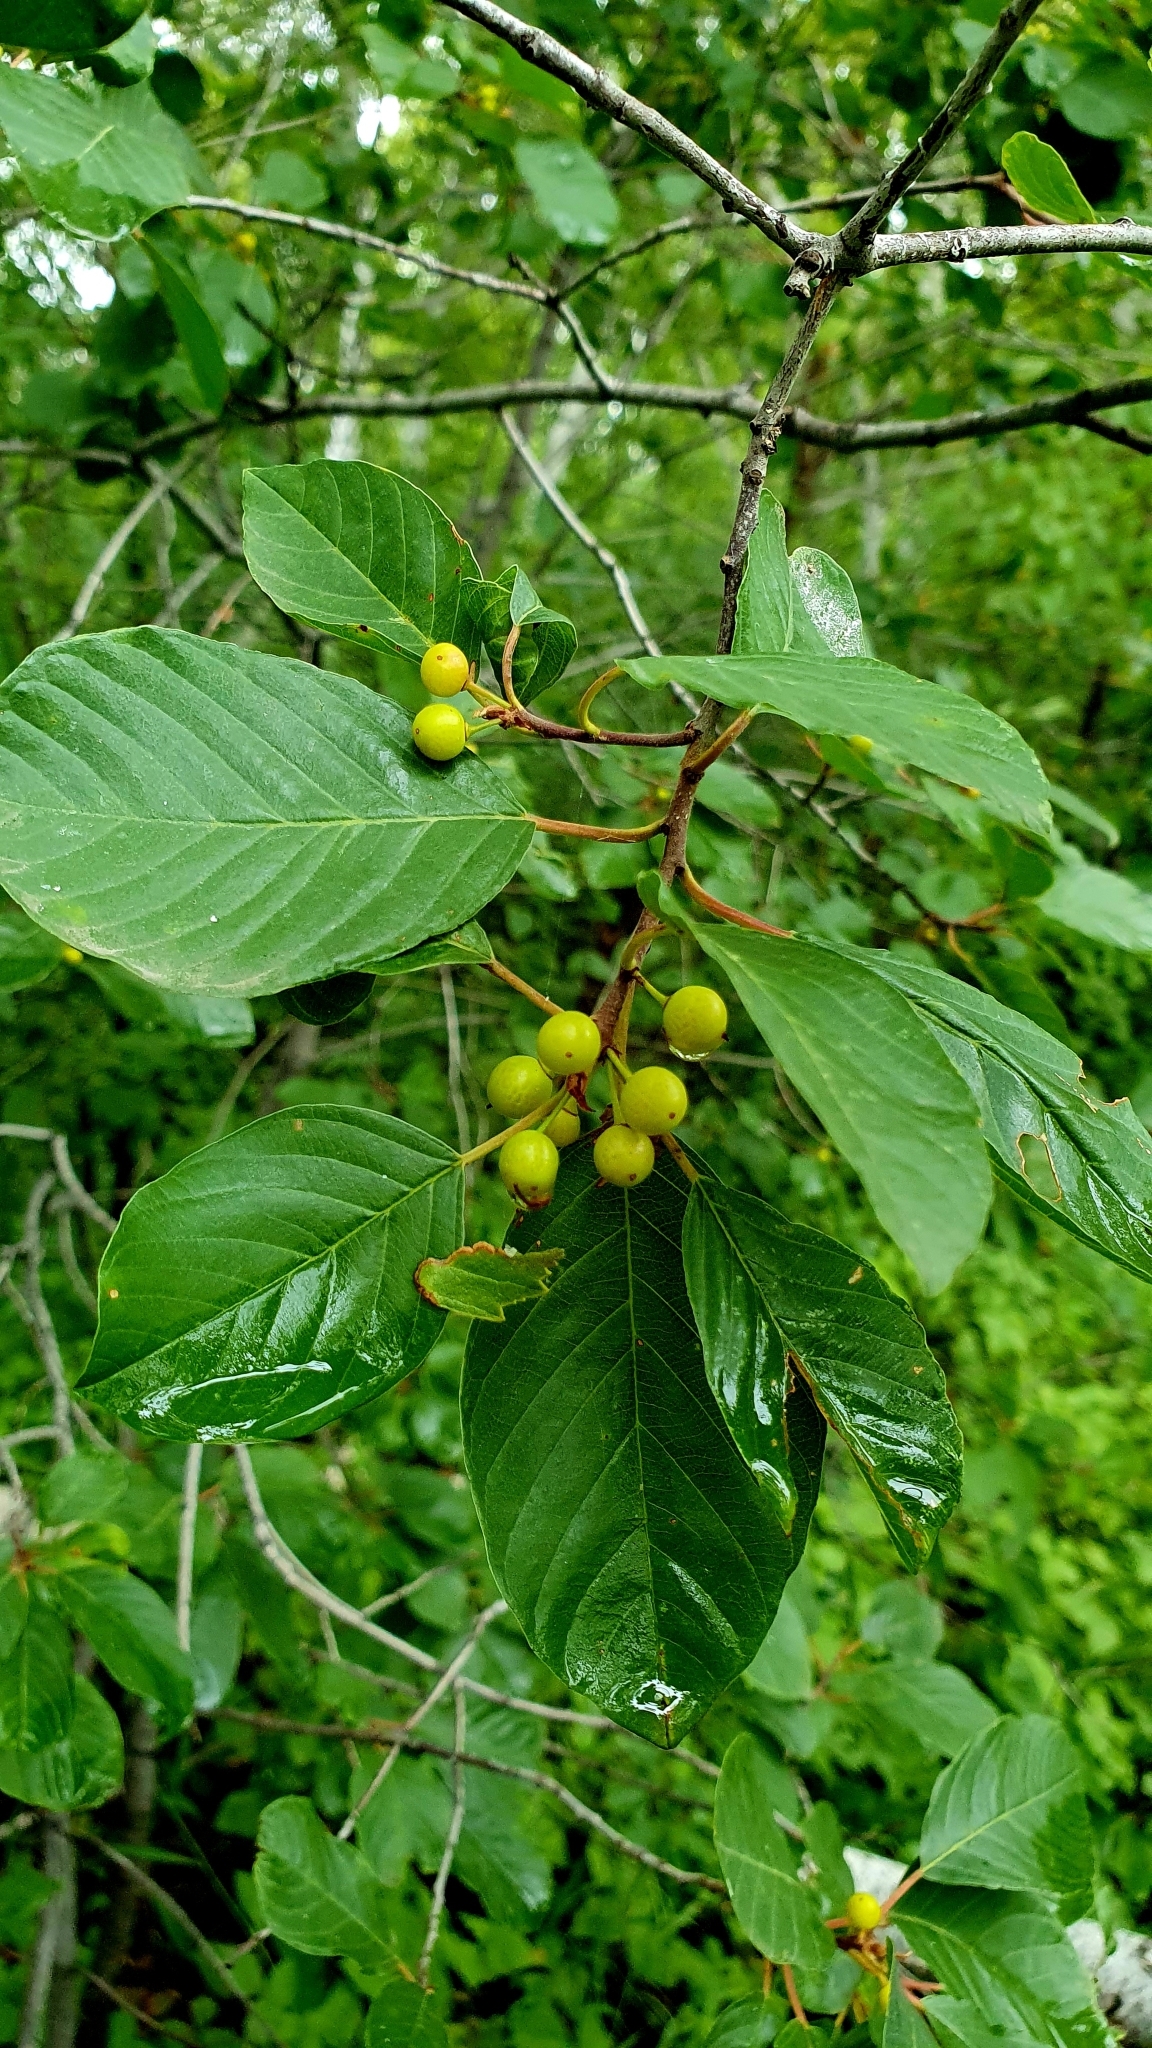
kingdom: Plantae
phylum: Tracheophyta
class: Magnoliopsida
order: Rosales
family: Rhamnaceae
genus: Frangula
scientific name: Frangula alnus
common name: Alder buckthorn
